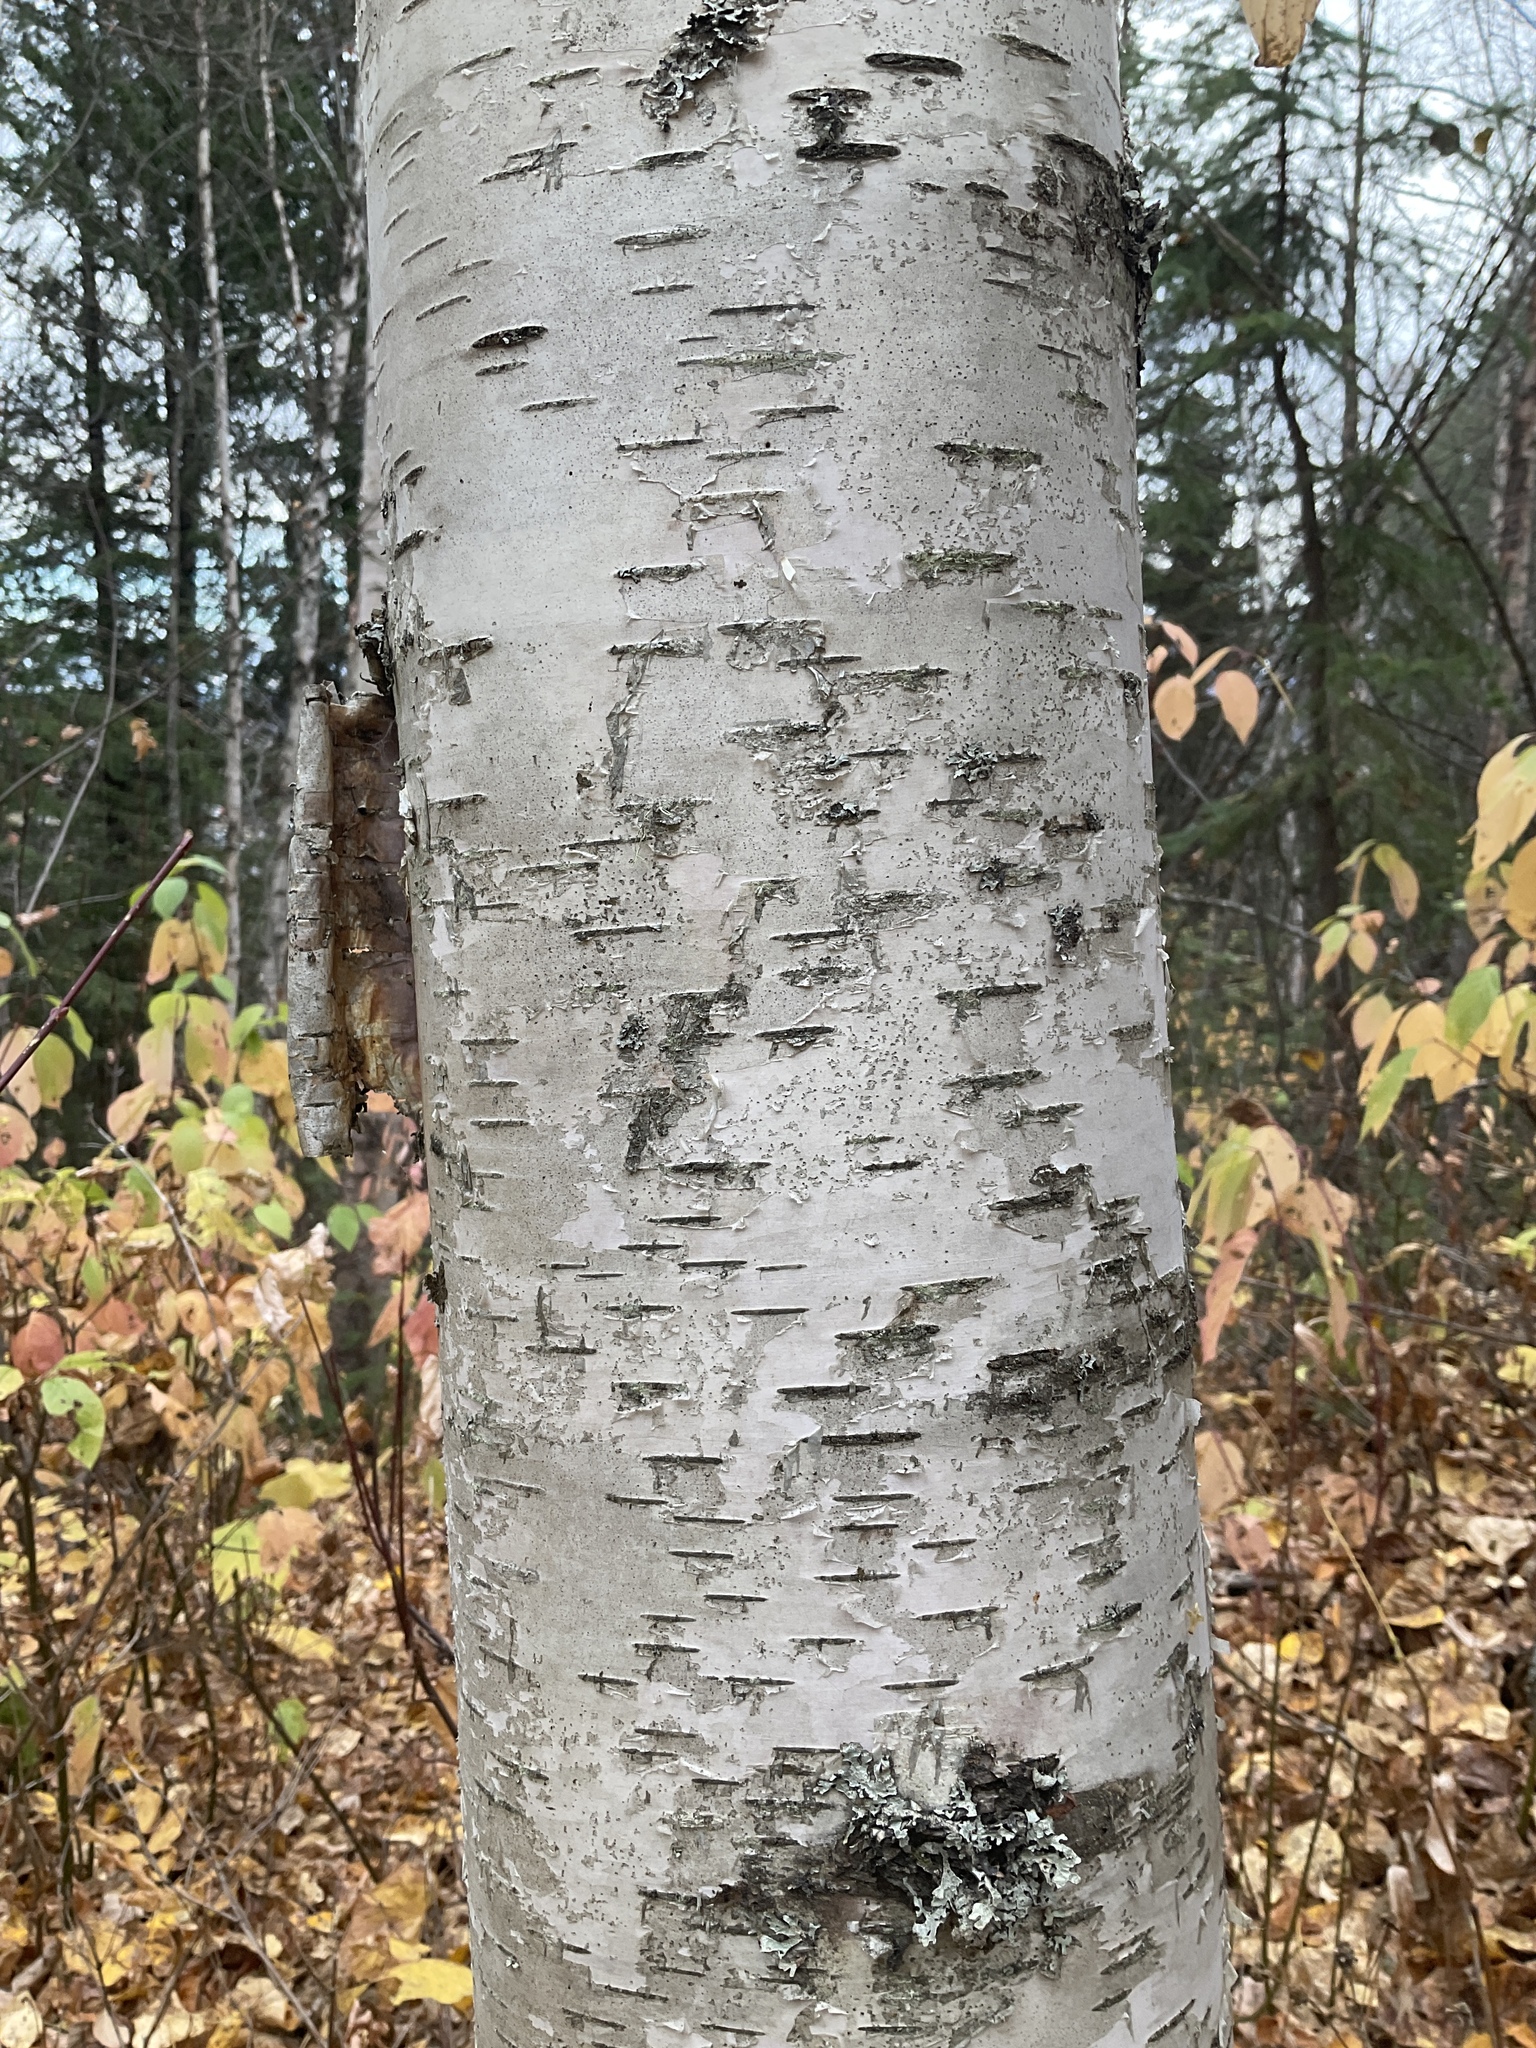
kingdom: Plantae
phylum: Tracheophyta
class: Magnoliopsida
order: Fagales
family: Betulaceae
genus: Betula
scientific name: Betula papyrifera
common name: Paper birch
